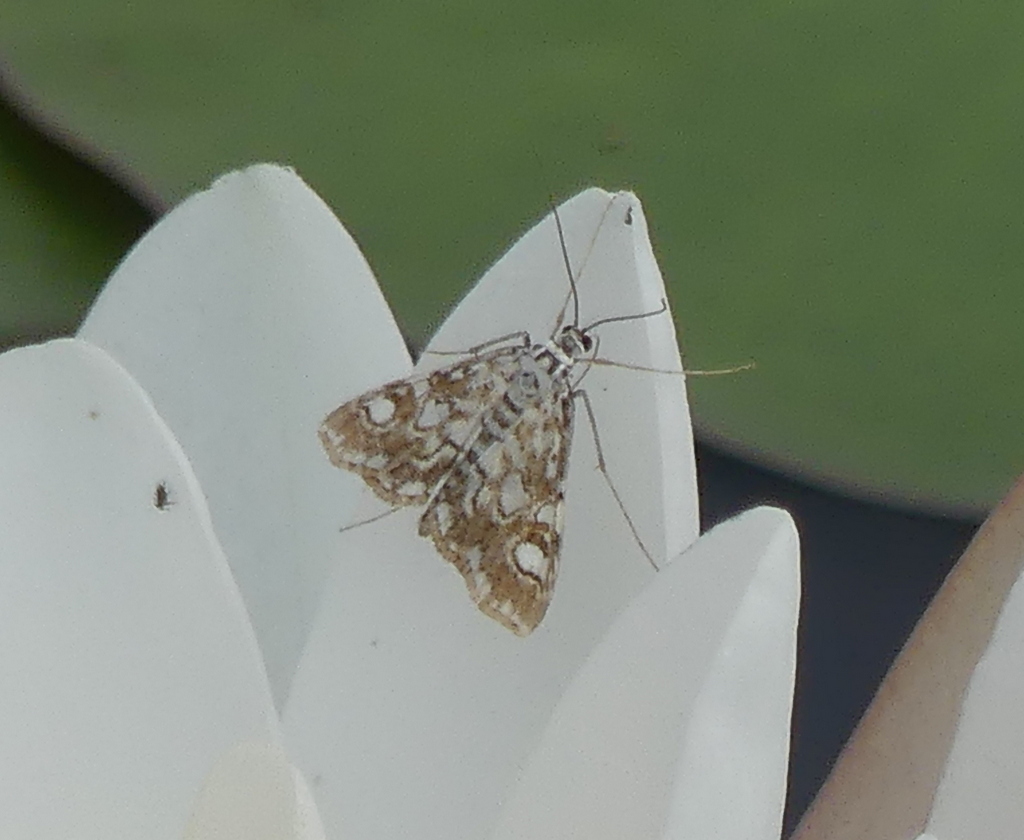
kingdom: Animalia
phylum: Arthropoda
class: Insecta
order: Lepidoptera
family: Crambidae
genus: Elophila
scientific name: Elophila nymphaeata
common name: Brown china-mark
